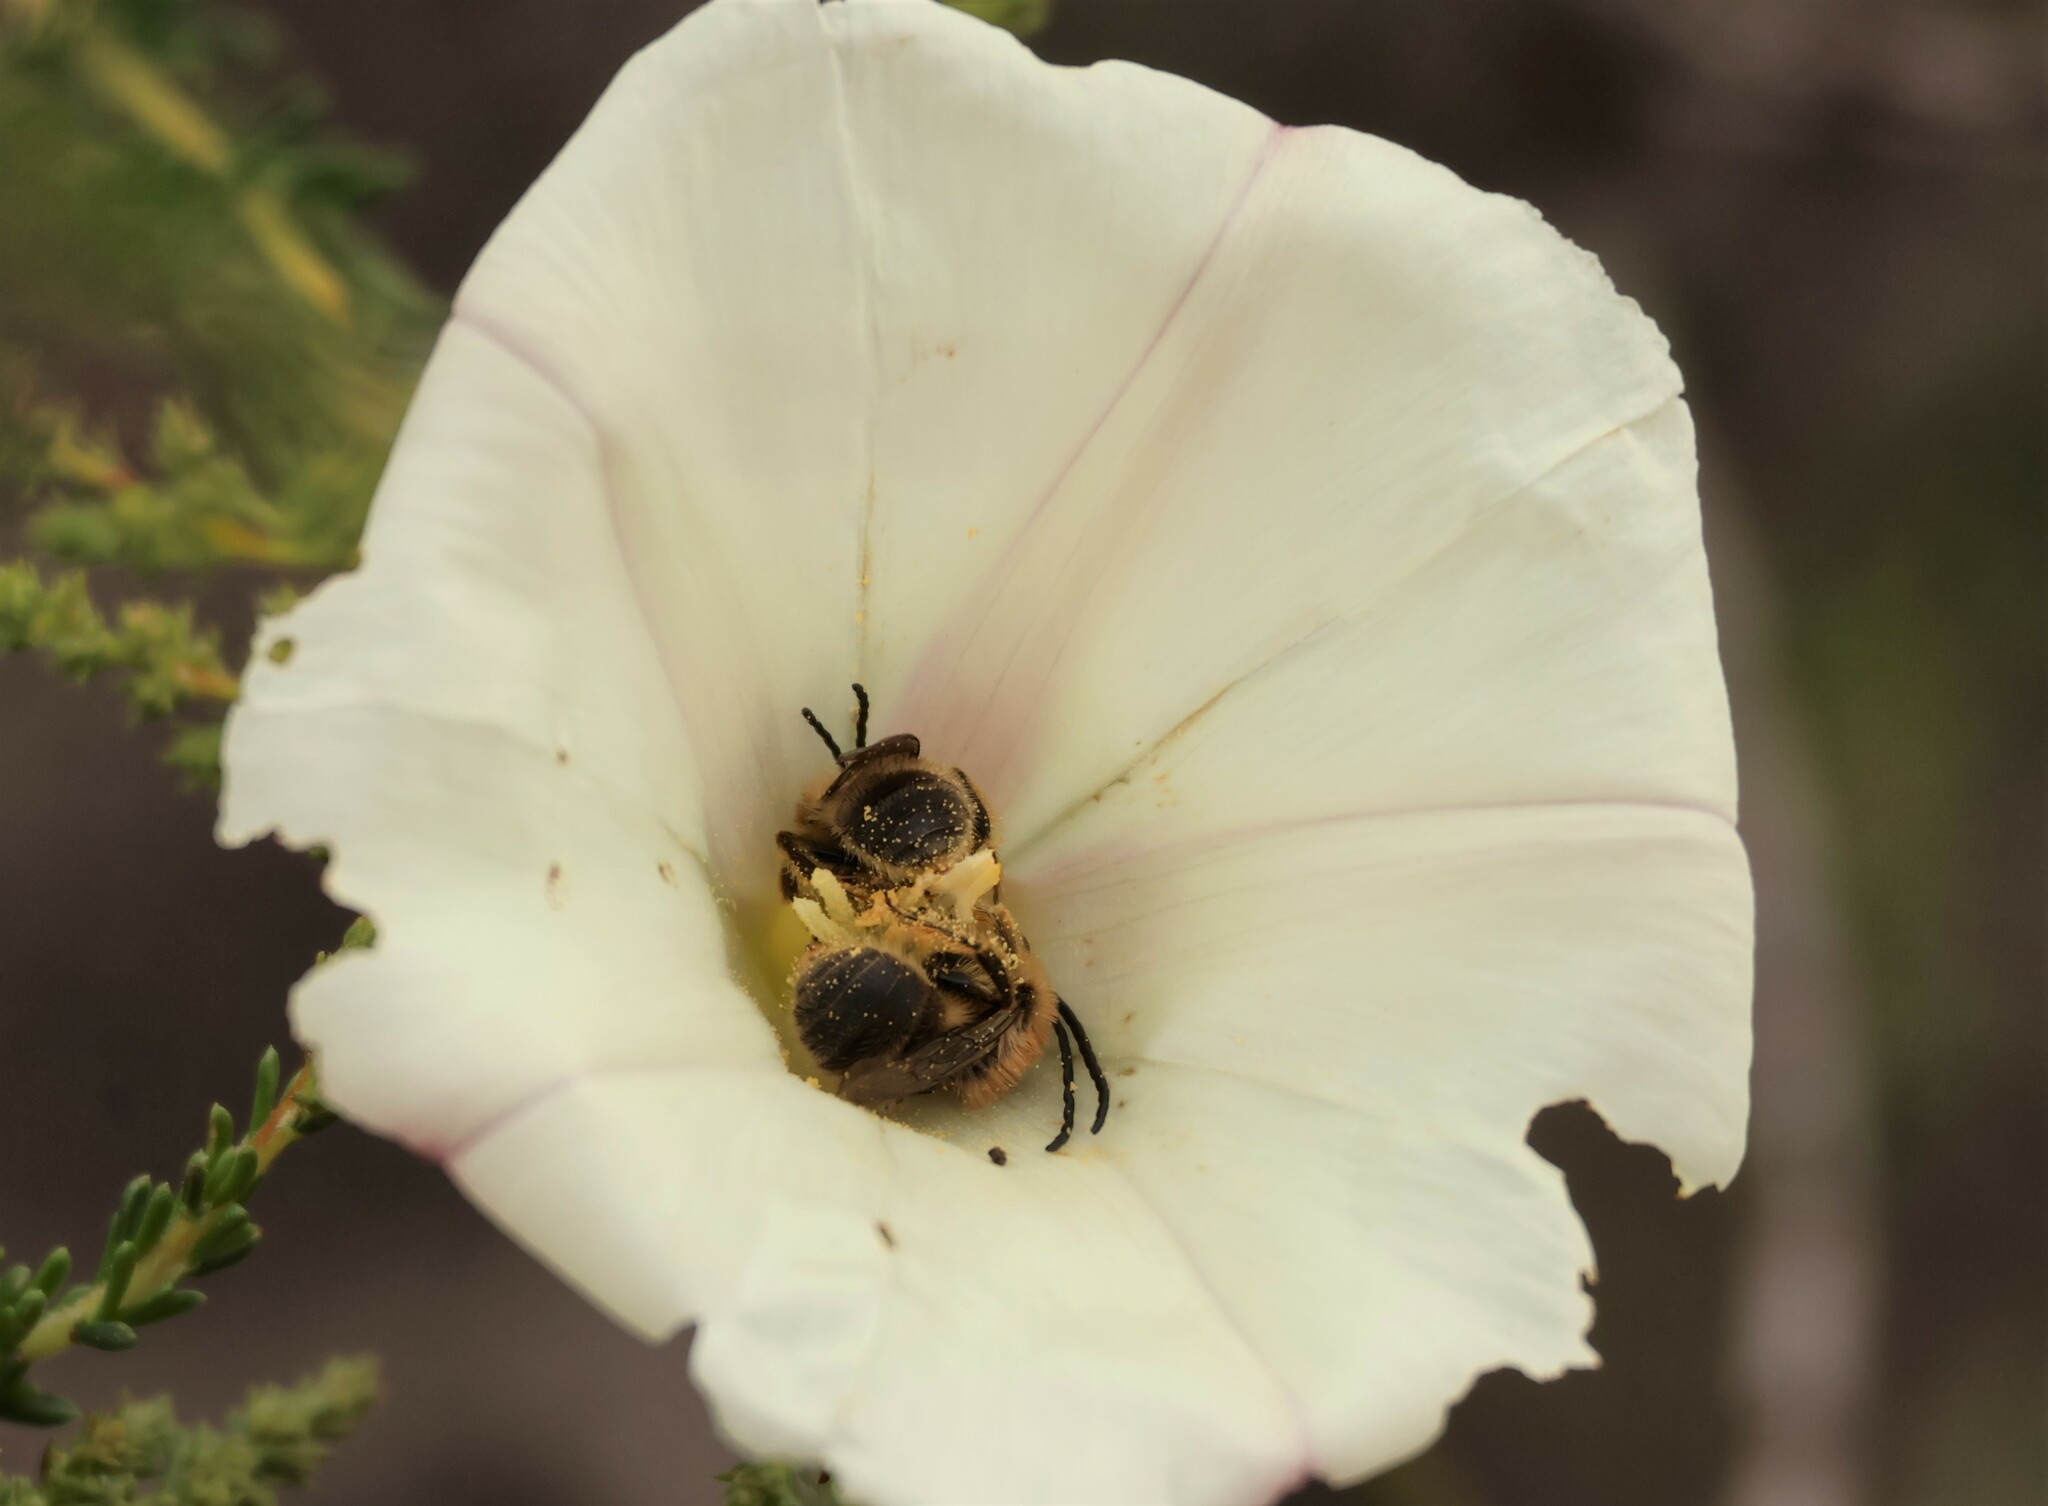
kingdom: Animalia
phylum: Arthropoda
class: Insecta
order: Hymenoptera
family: Apidae
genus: Tetraloniella
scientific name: Tetraloniella davidsoni
